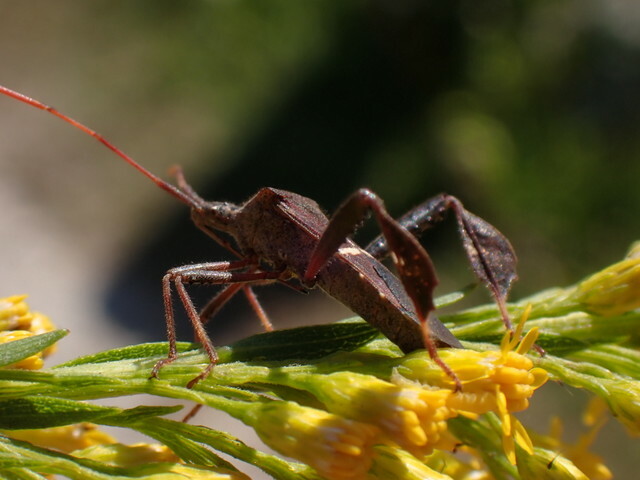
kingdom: Animalia
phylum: Arthropoda
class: Insecta
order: Hemiptera
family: Coreidae
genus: Leptoglossus
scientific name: Leptoglossus phyllopus
